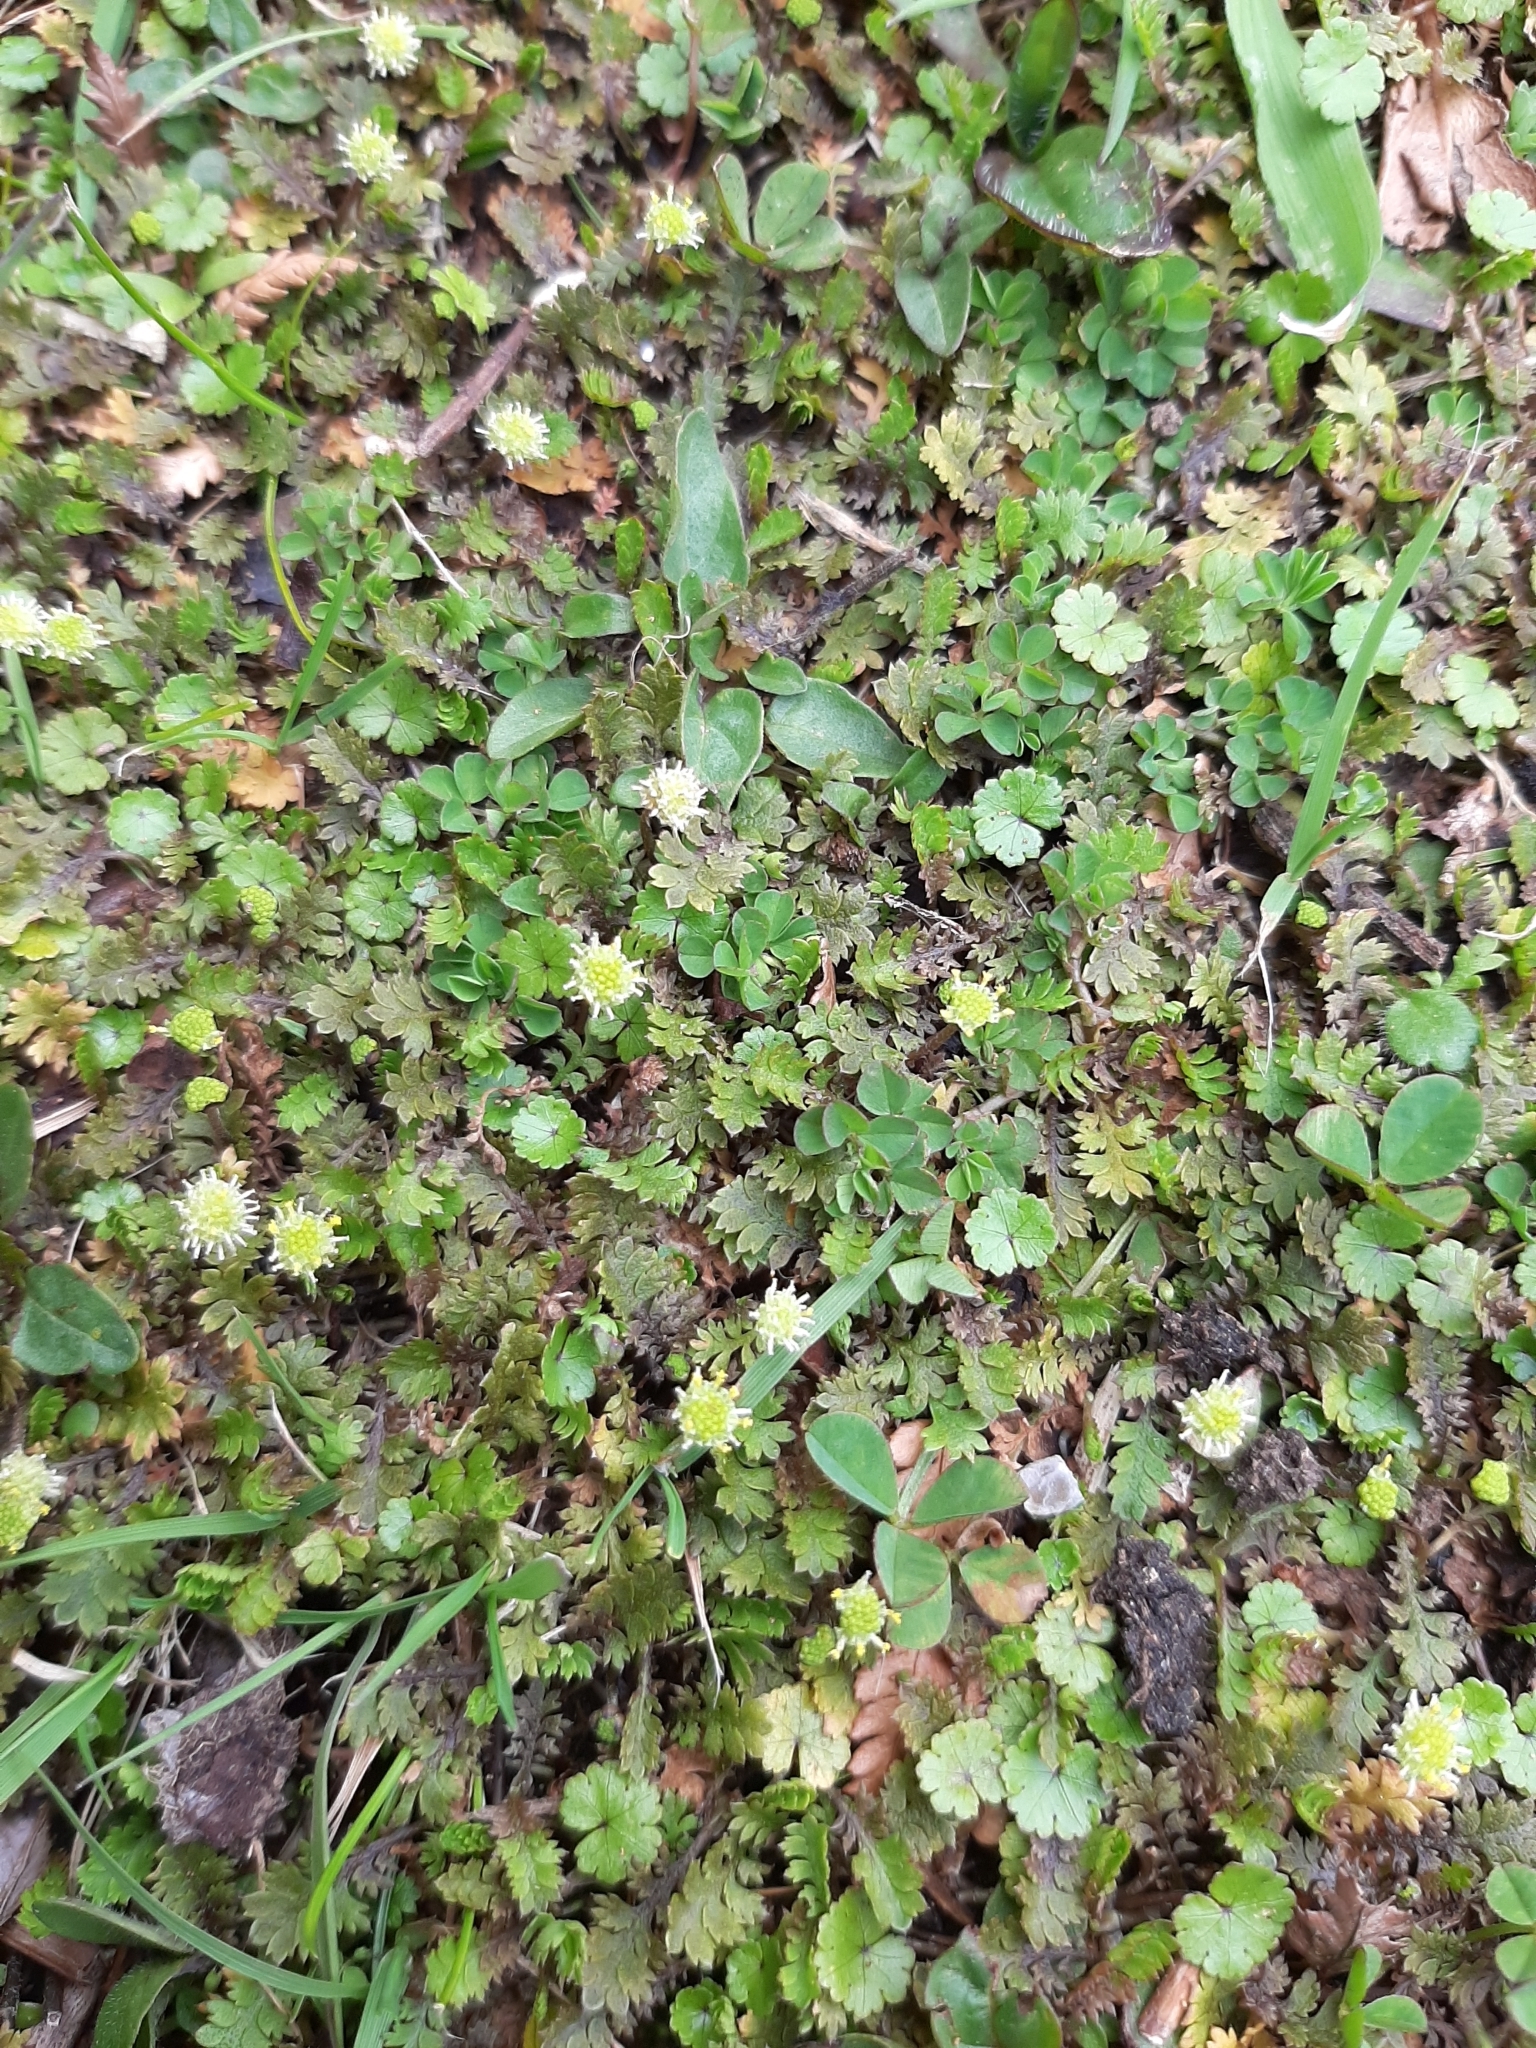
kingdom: Plantae
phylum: Tracheophyta
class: Magnoliopsida
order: Asterales
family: Asteraceae
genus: Leptinella
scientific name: Leptinella dispersa
